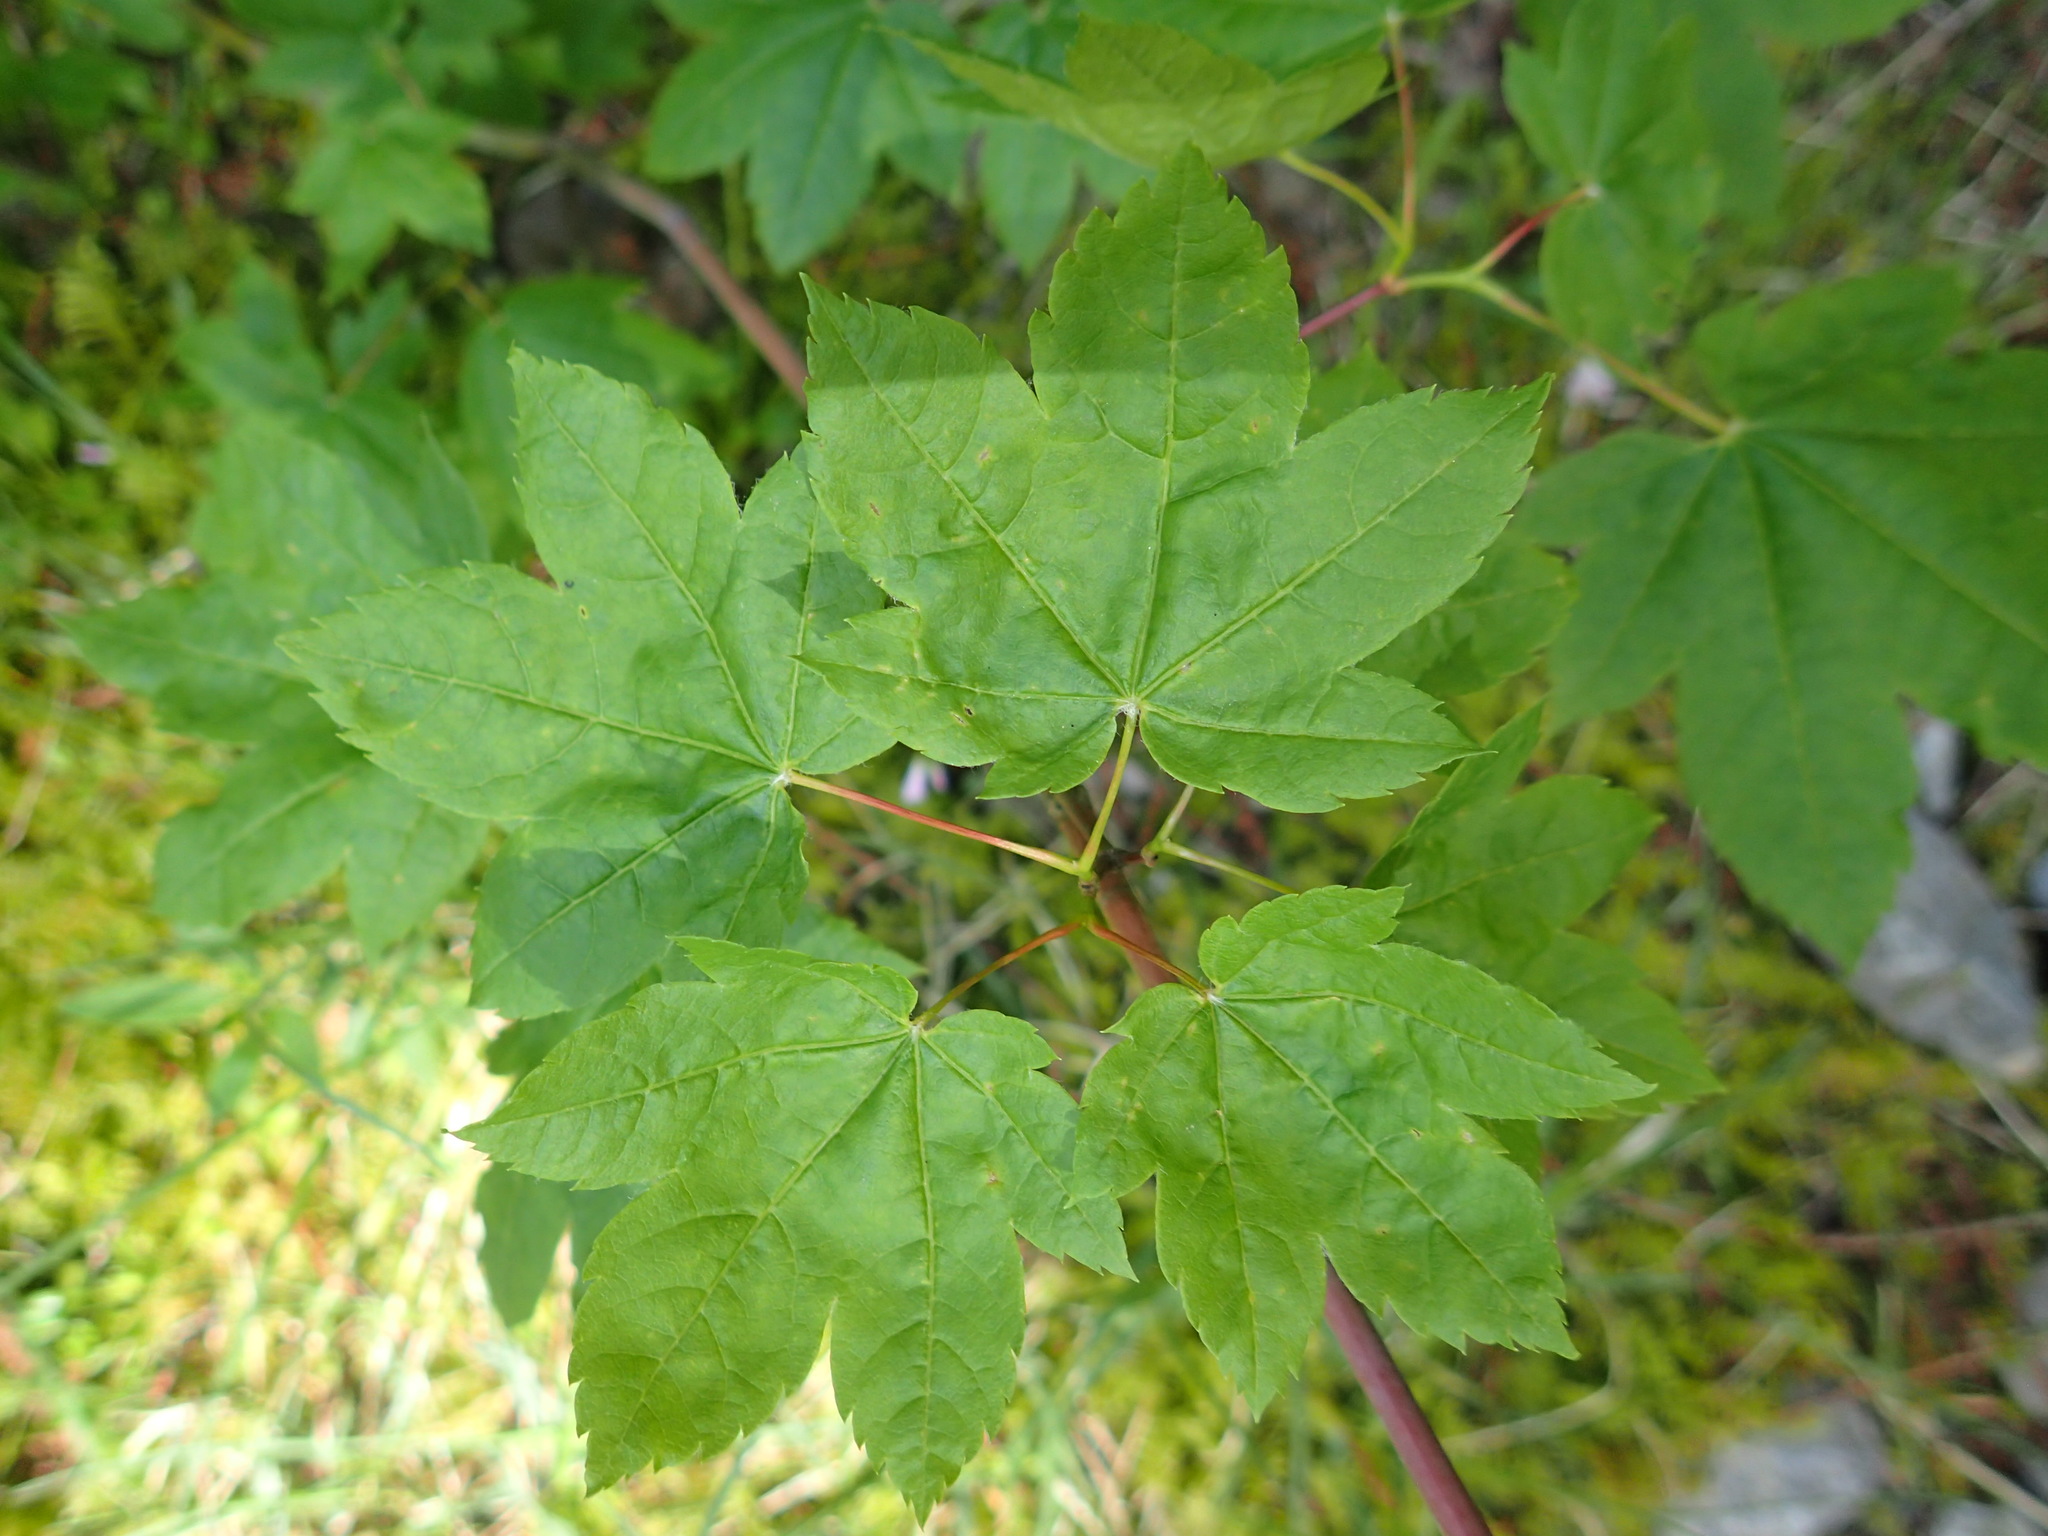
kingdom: Plantae
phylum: Tracheophyta
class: Magnoliopsida
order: Sapindales
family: Sapindaceae
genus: Acer
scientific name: Acer circinatum
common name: Vine maple
